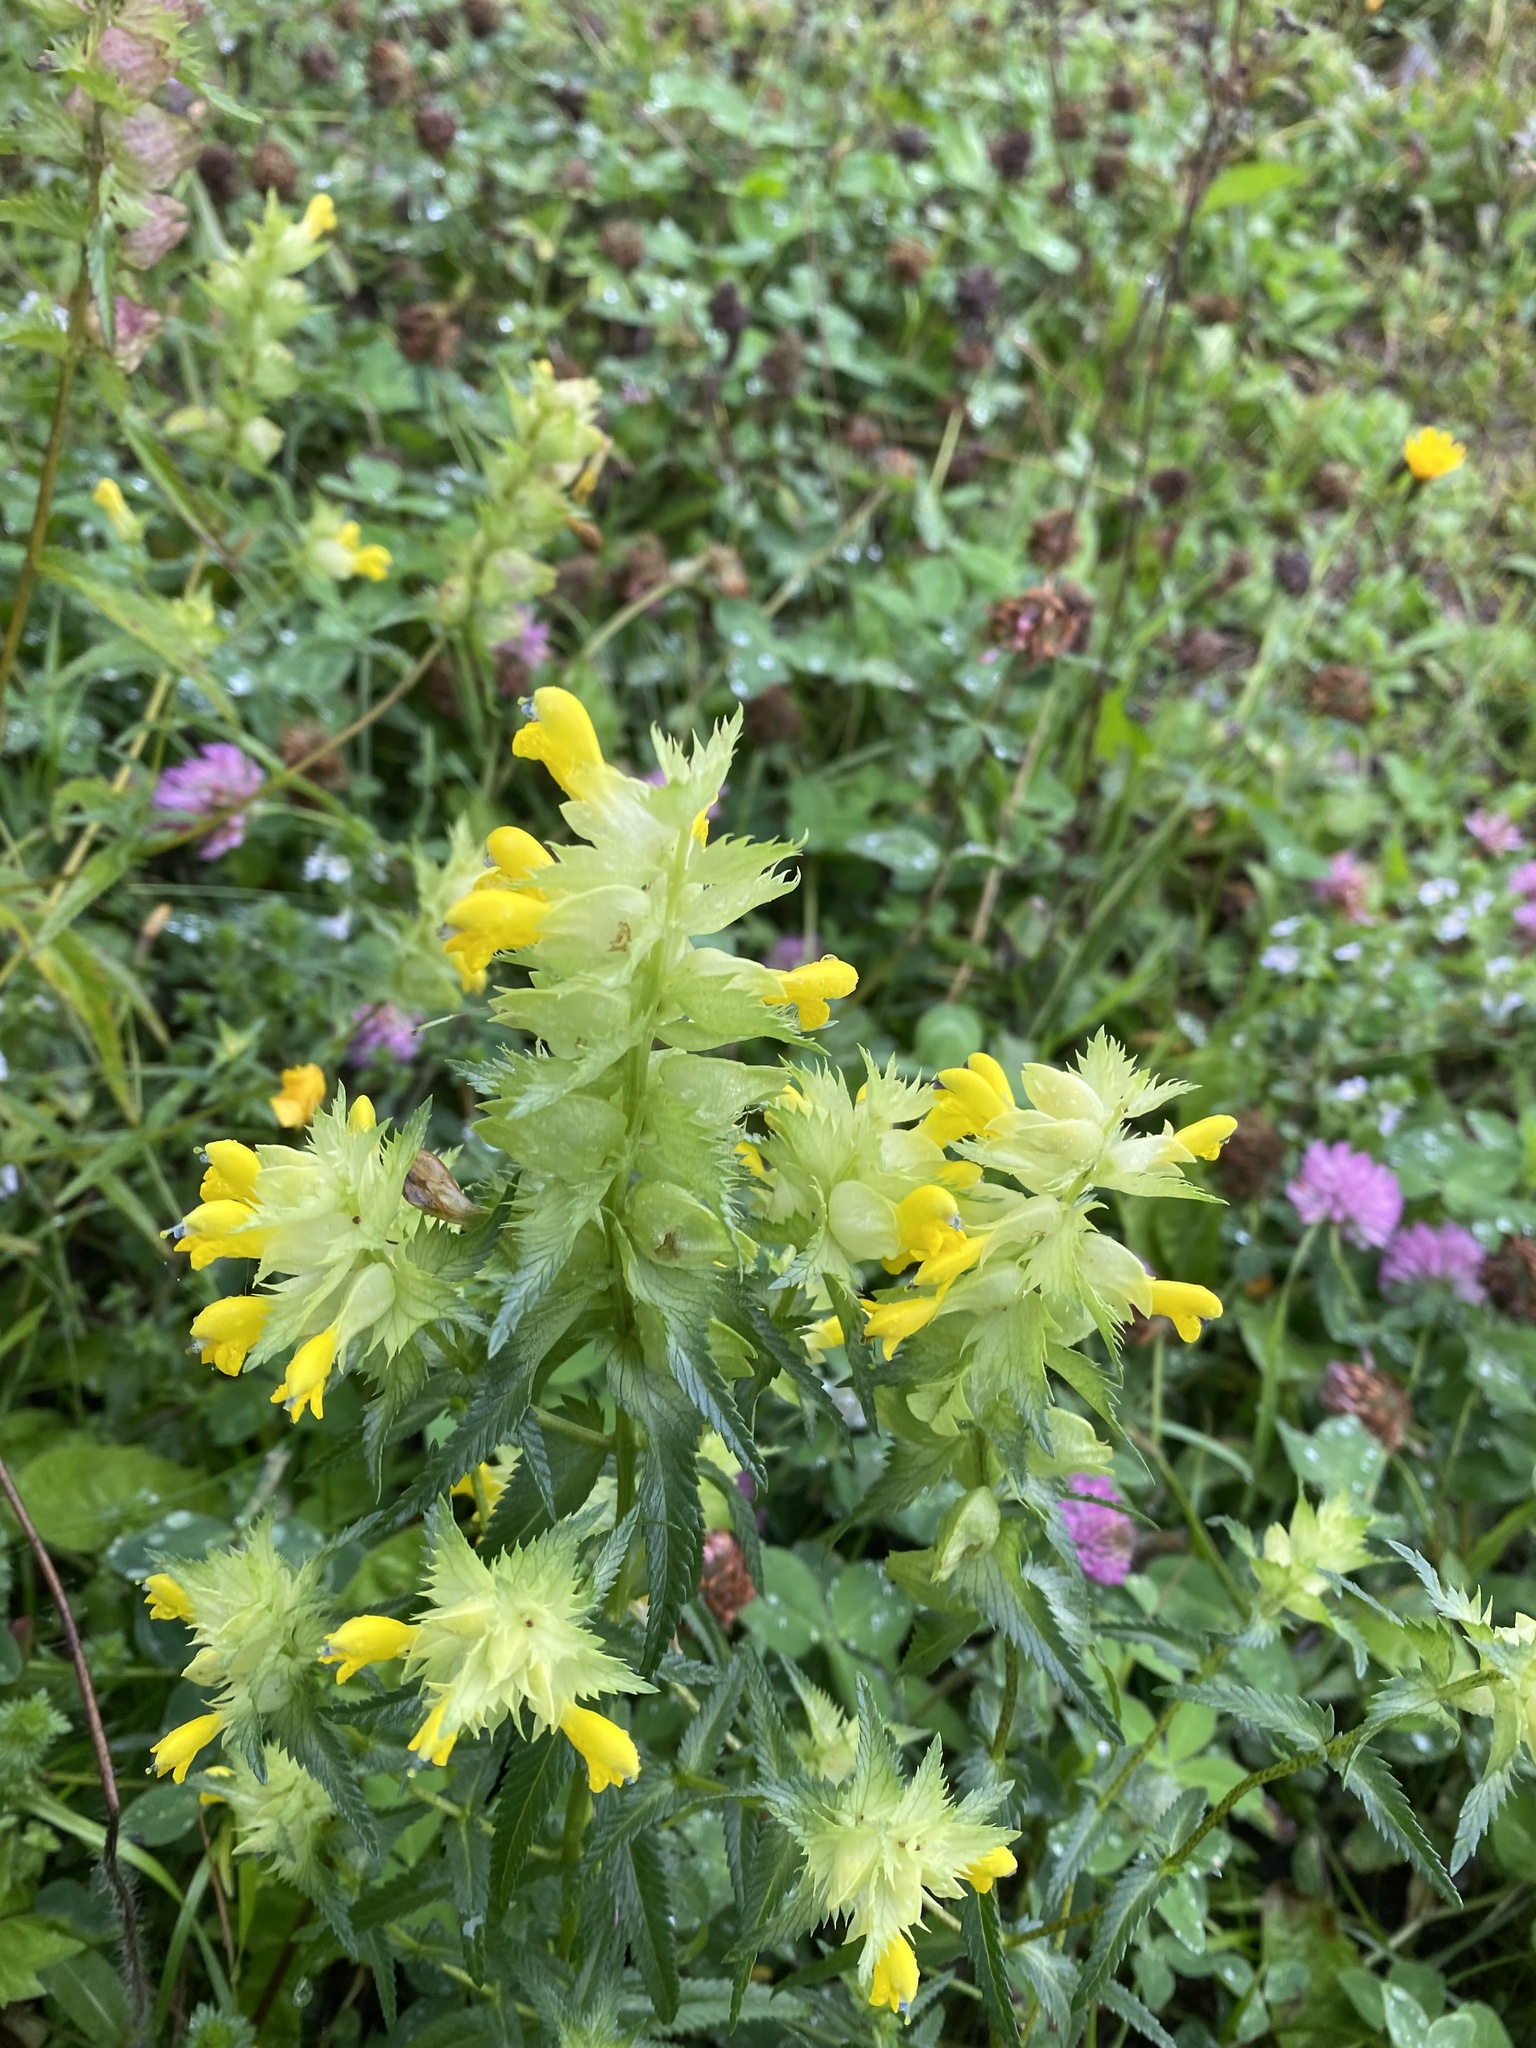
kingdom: Plantae
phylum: Tracheophyta
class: Magnoliopsida
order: Lamiales
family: Orobanchaceae
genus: Rhinanthus
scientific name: Rhinanthus serotinus
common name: Late-flowering yellow rattle
